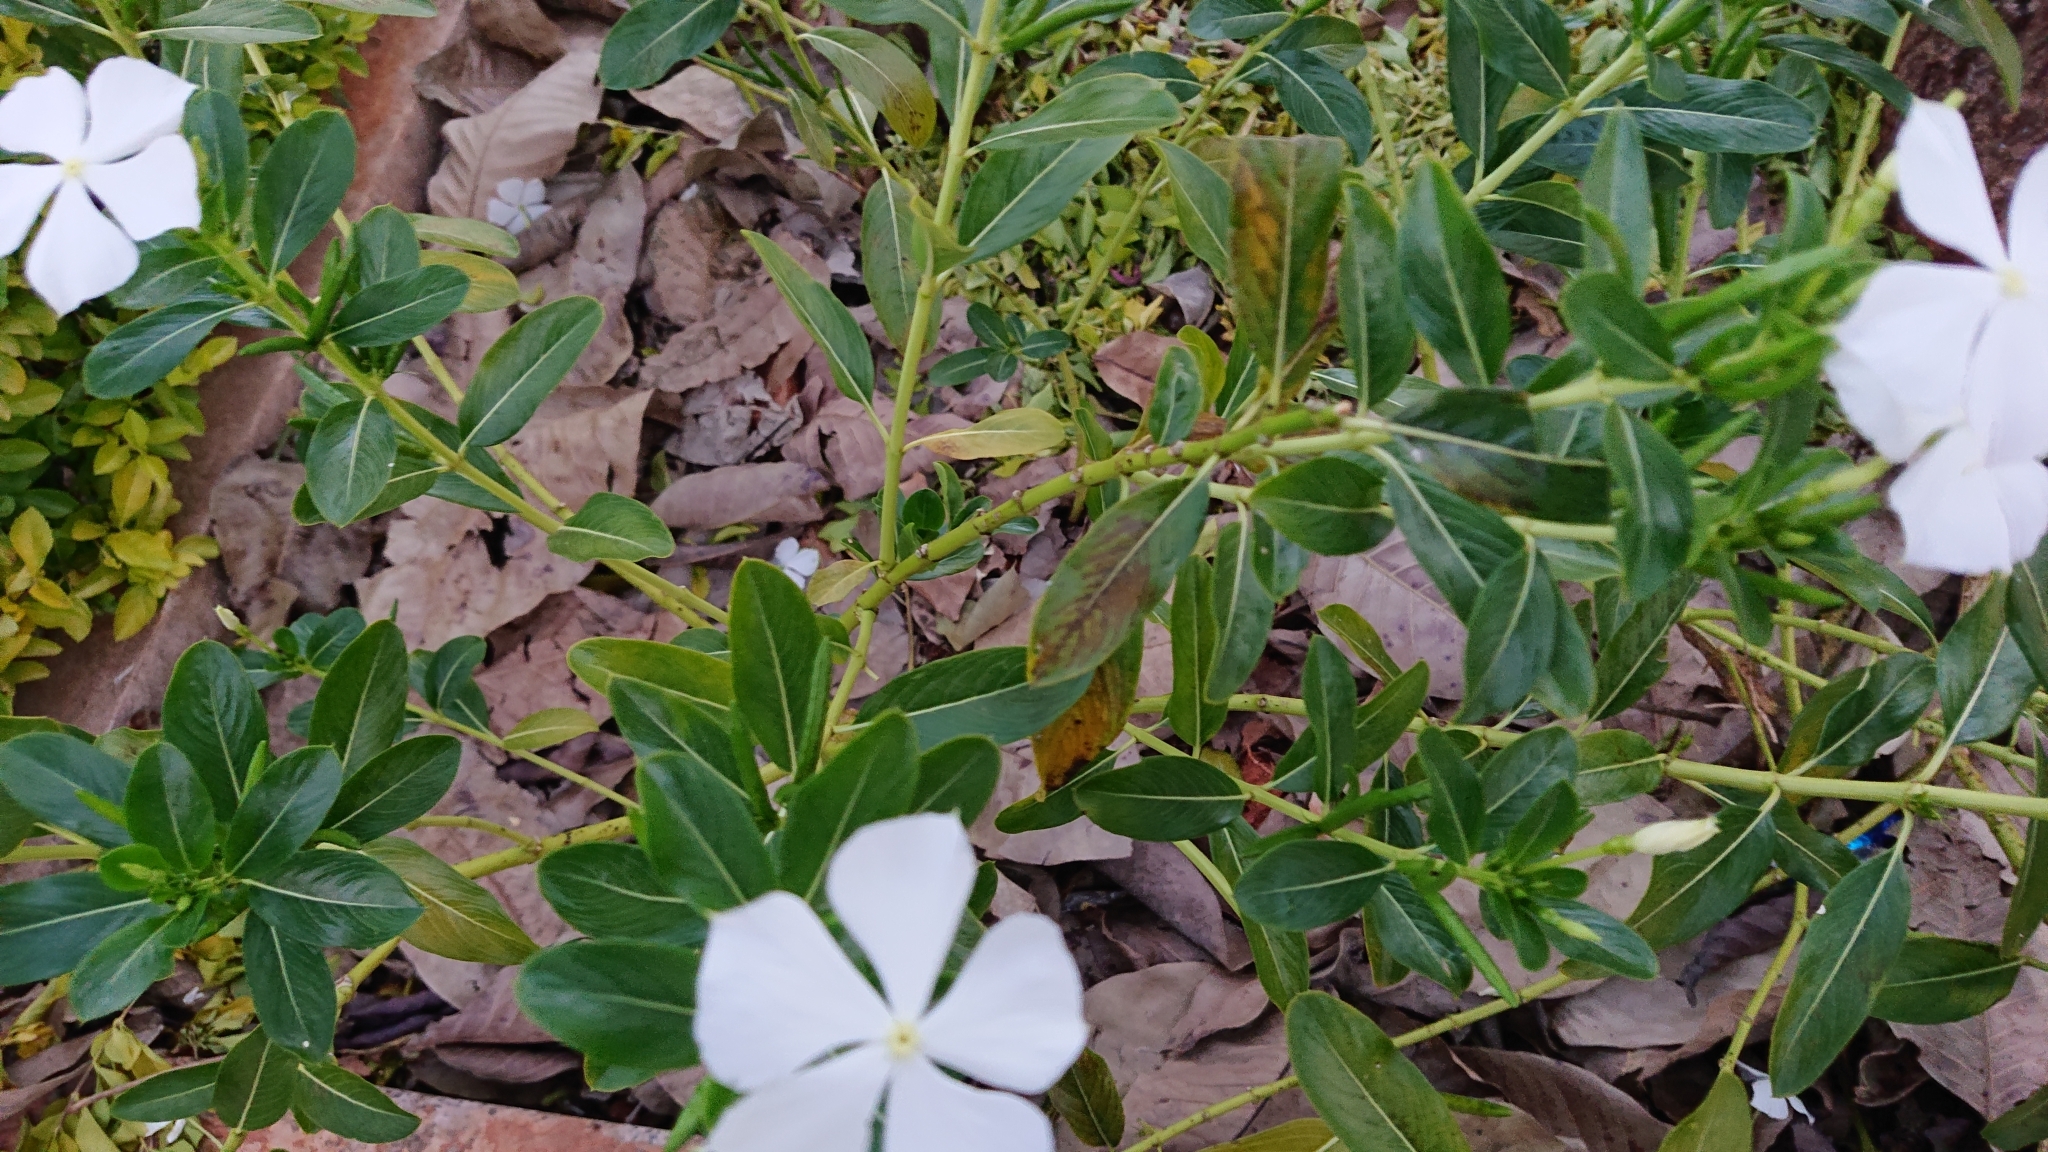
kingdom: Plantae
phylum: Tracheophyta
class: Magnoliopsida
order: Gentianales
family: Apocynaceae
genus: Catharanthus
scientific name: Catharanthus roseus
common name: Madagascar periwinkle
